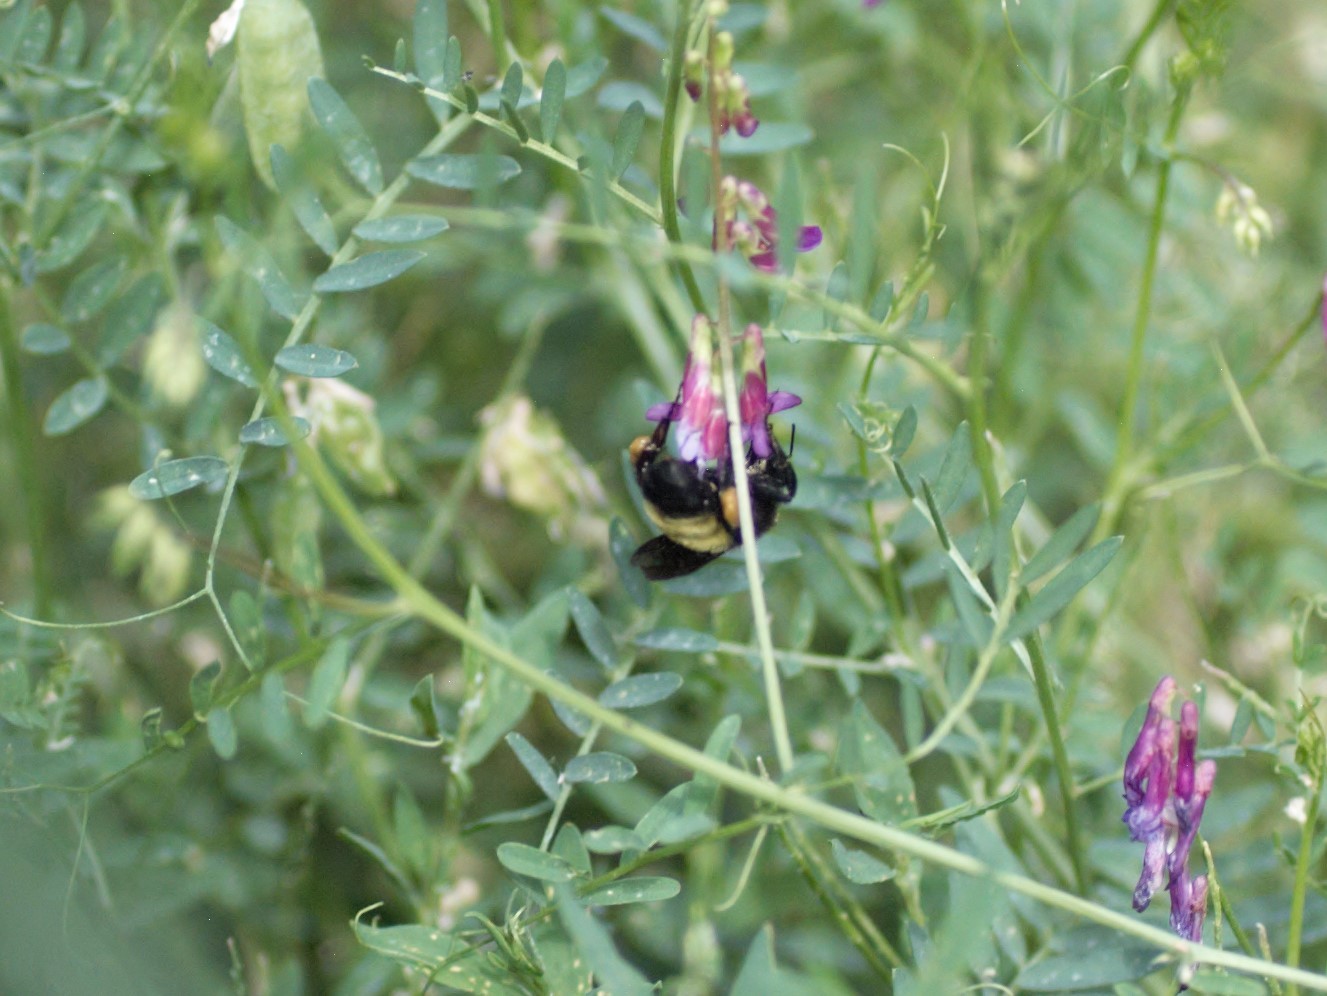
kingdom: Animalia
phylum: Arthropoda
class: Insecta
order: Hymenoptera
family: Apidae
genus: Bombus
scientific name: Bombus pensylvanicus
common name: Bumble bee
